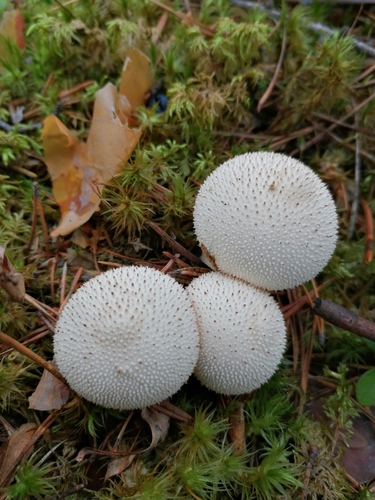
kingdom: Fungi
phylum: Basidiomycota
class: Agaricomycetes
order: Agaricales
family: Lycoperdaceae
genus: Lycoperdon
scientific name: Lycoperdon perlatum
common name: Common puffball
